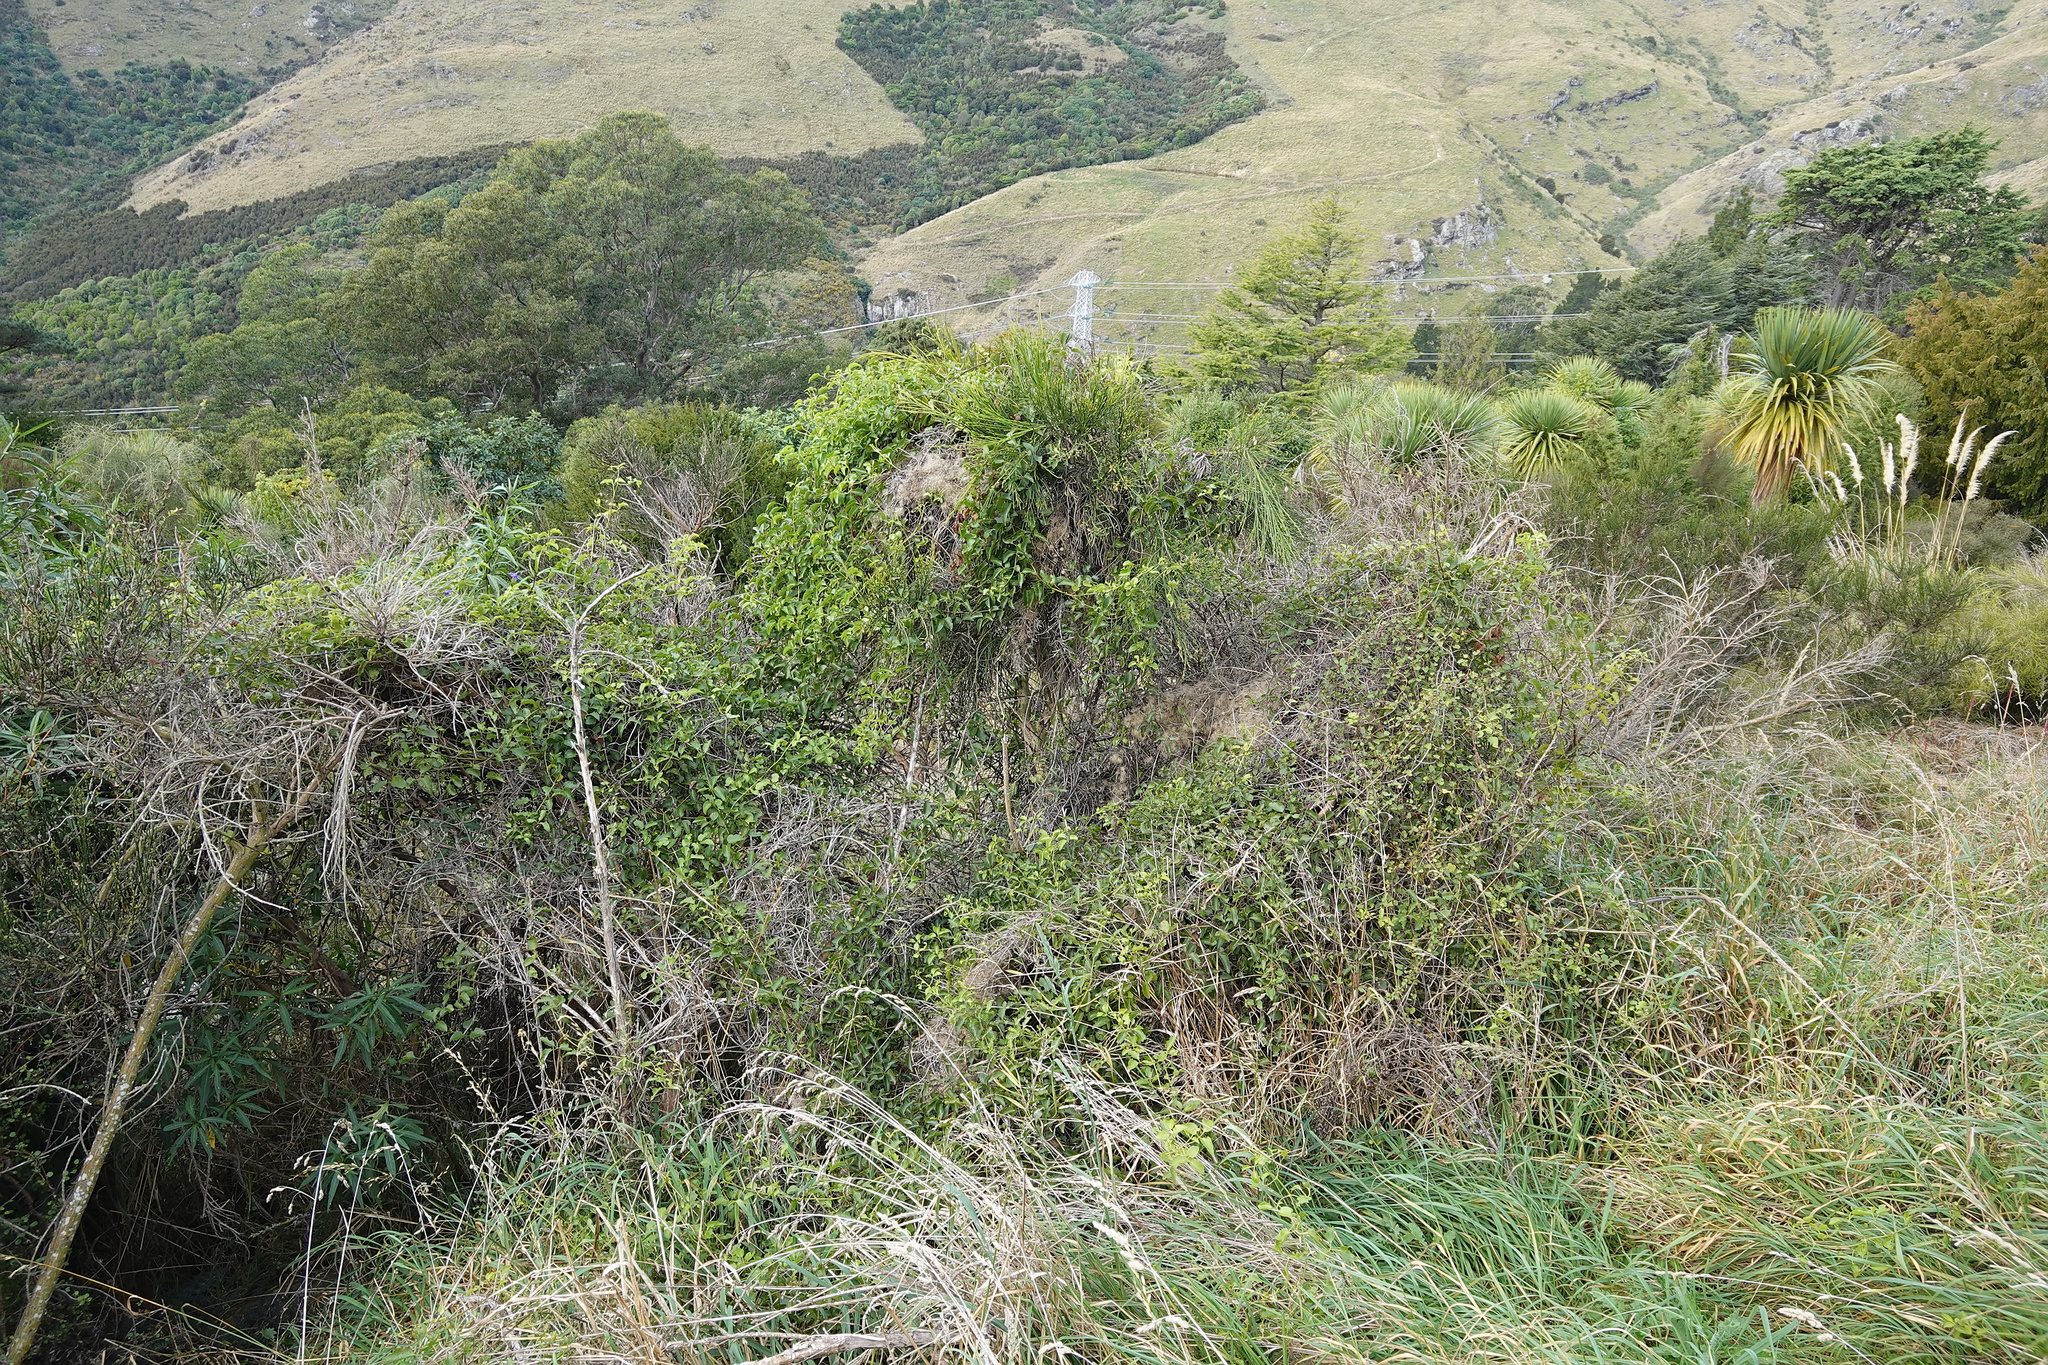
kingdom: Plantae
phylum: Tracheophyta
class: Magnoliopsida
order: Ranunculales
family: Ranunculaceae
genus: Clematis
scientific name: Clematis foetida
